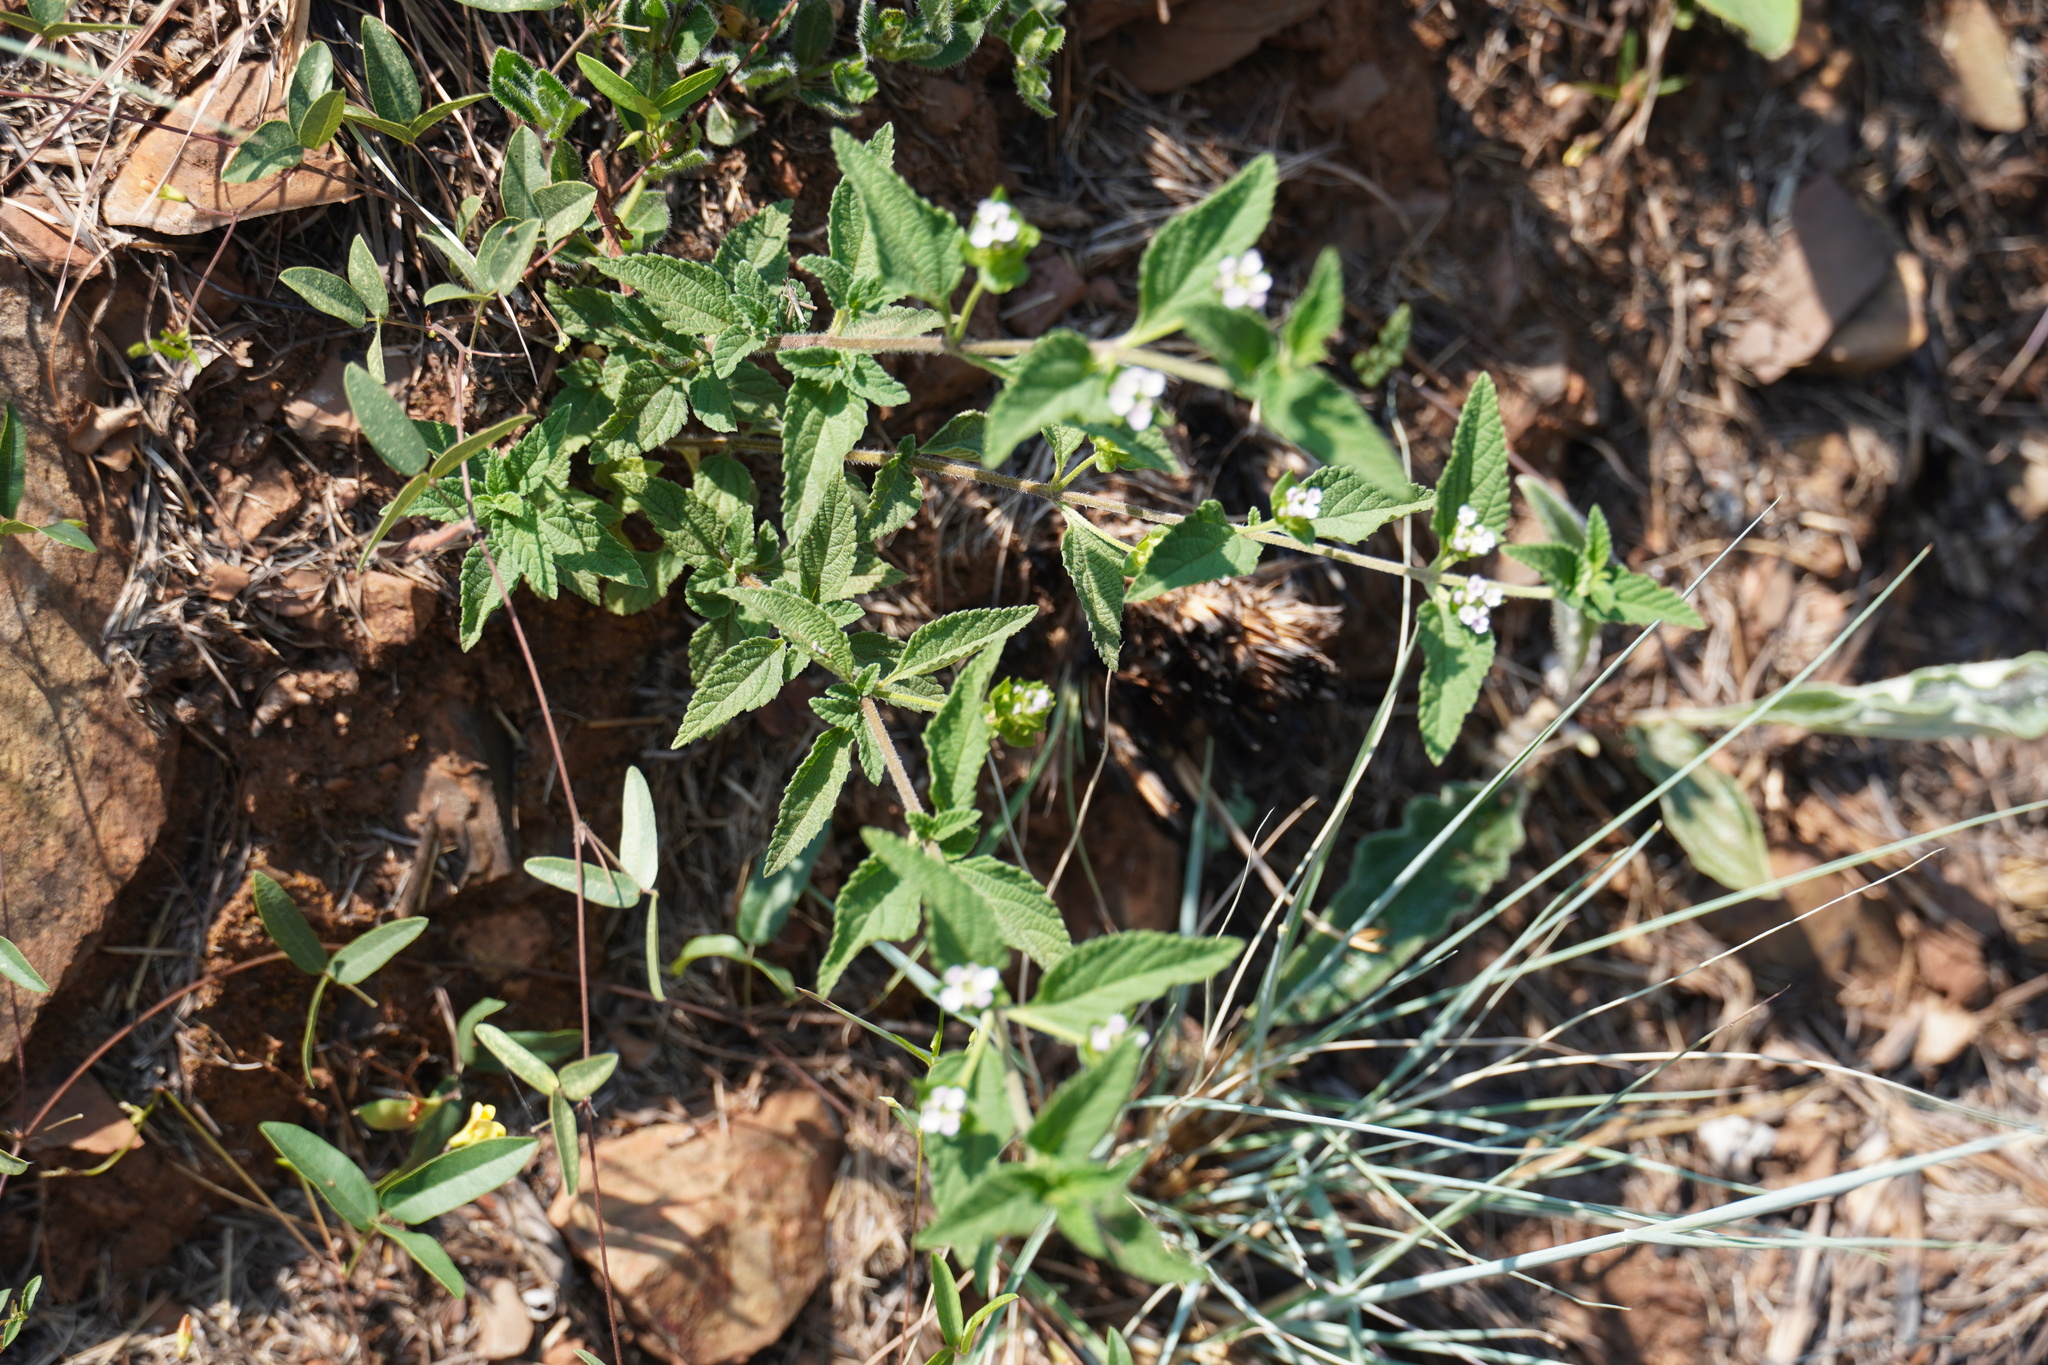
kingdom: Plantae
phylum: Tracheophyta
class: Magnoliopsida
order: Lamiales
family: Verbenaceae
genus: Lantana
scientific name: Lantana rugosa
